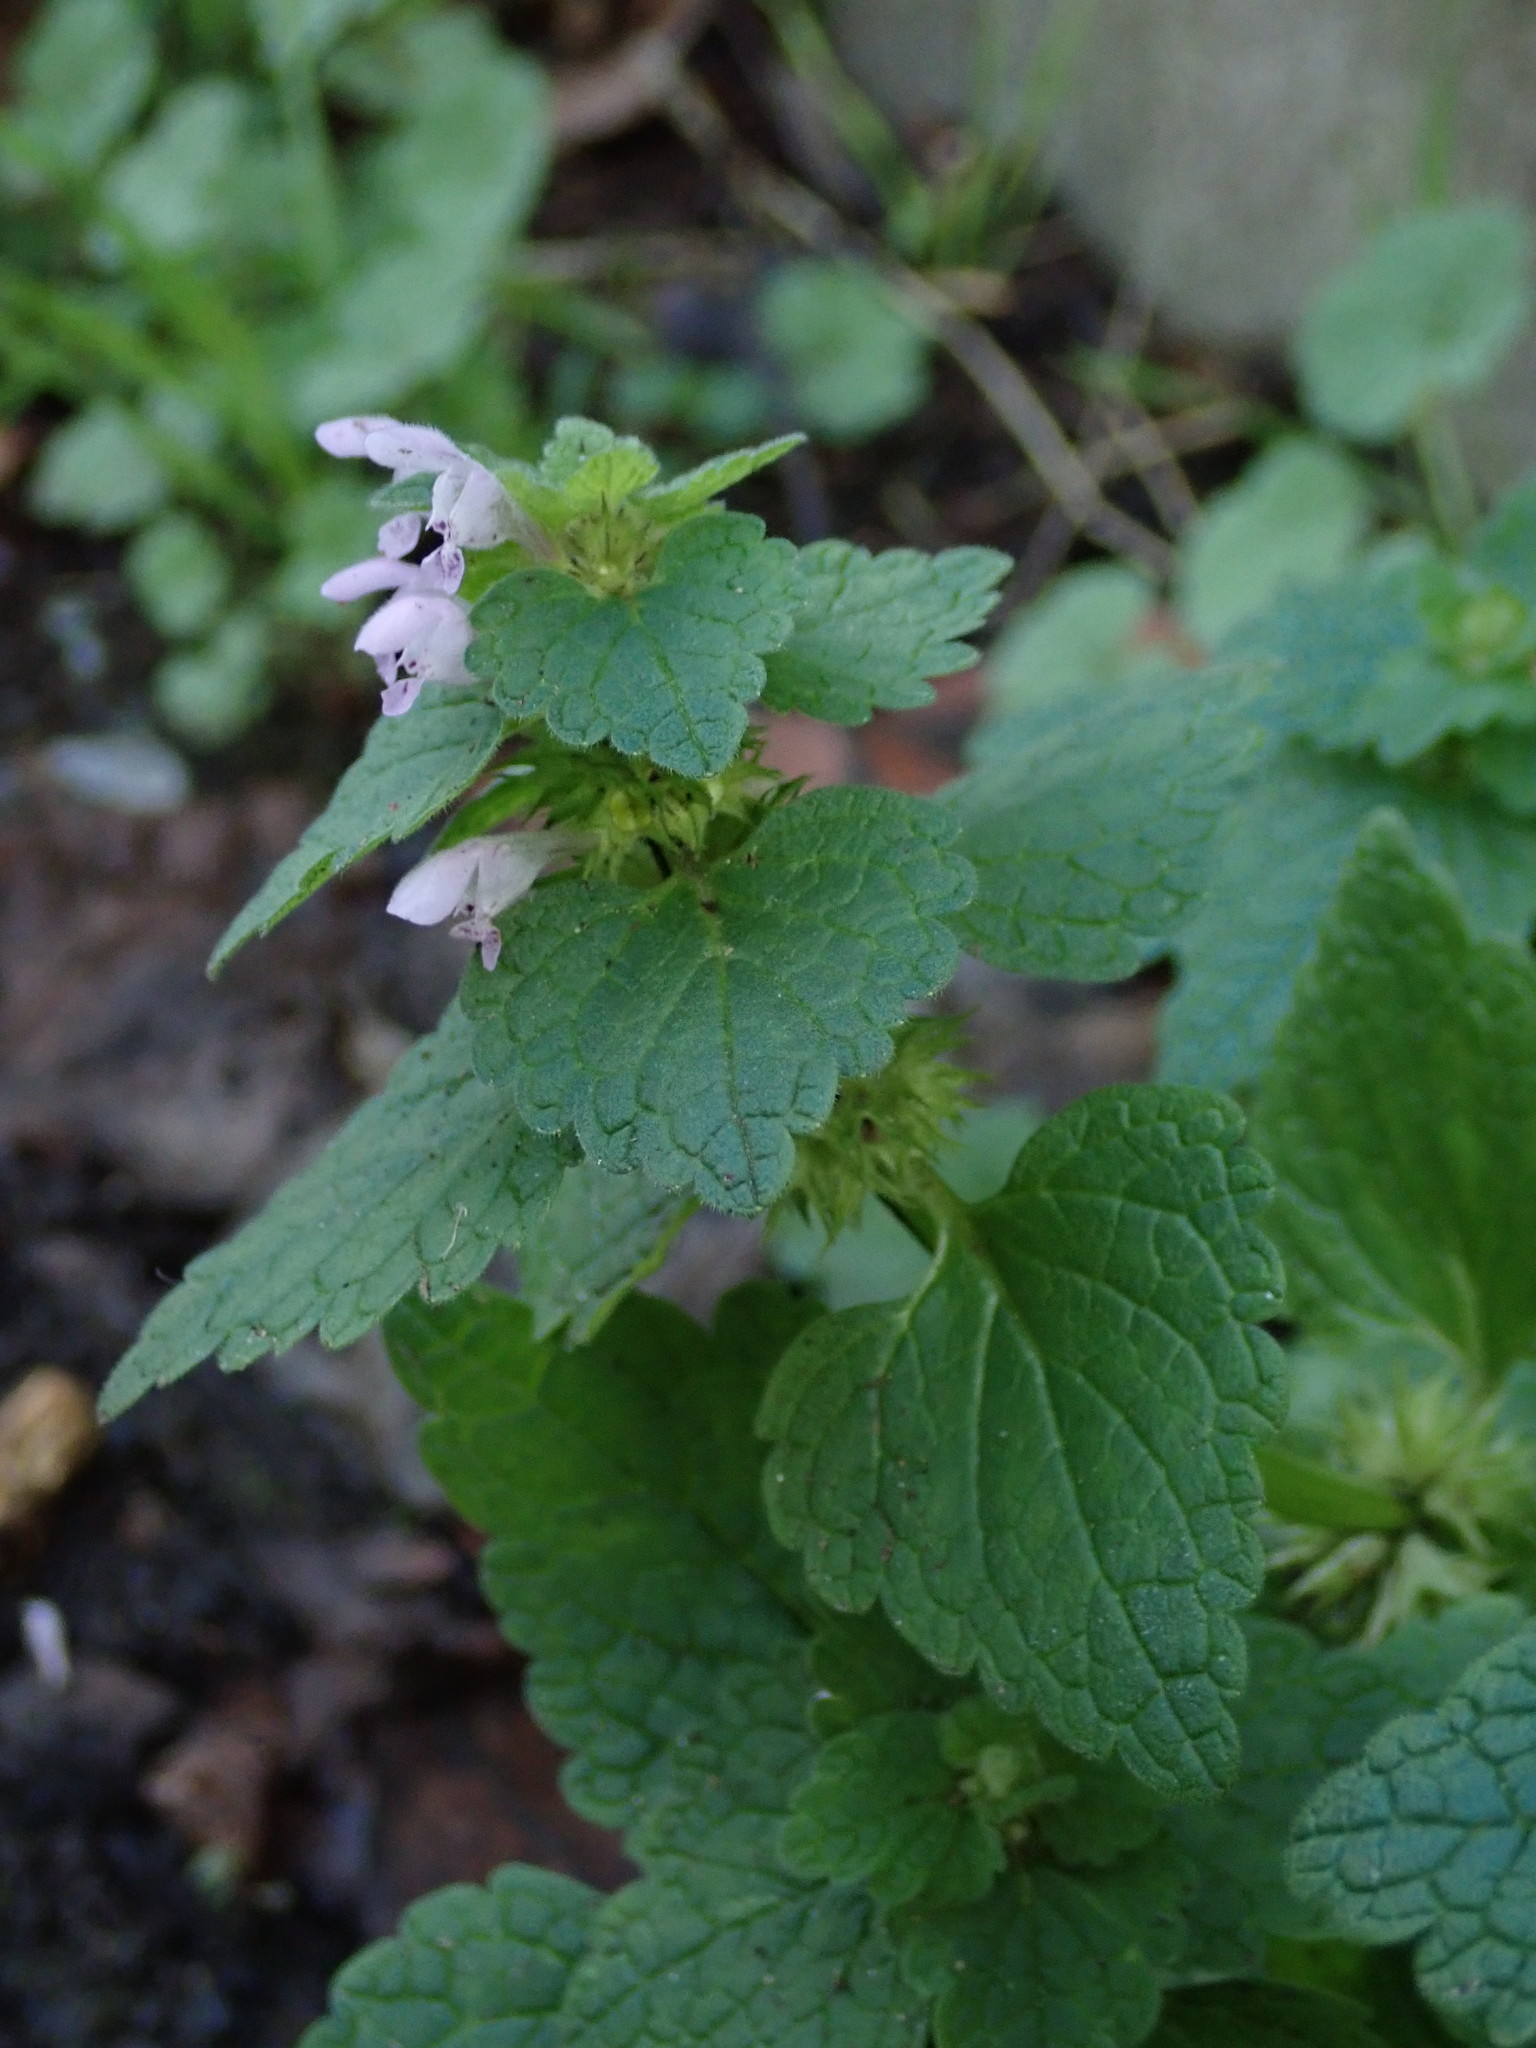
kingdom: Plantae
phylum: Tracheophyta
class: Magnoliopsida
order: Lamiales
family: Lamiaceae
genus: Lamium
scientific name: Lamium purpureum
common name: Red dead-nettle
